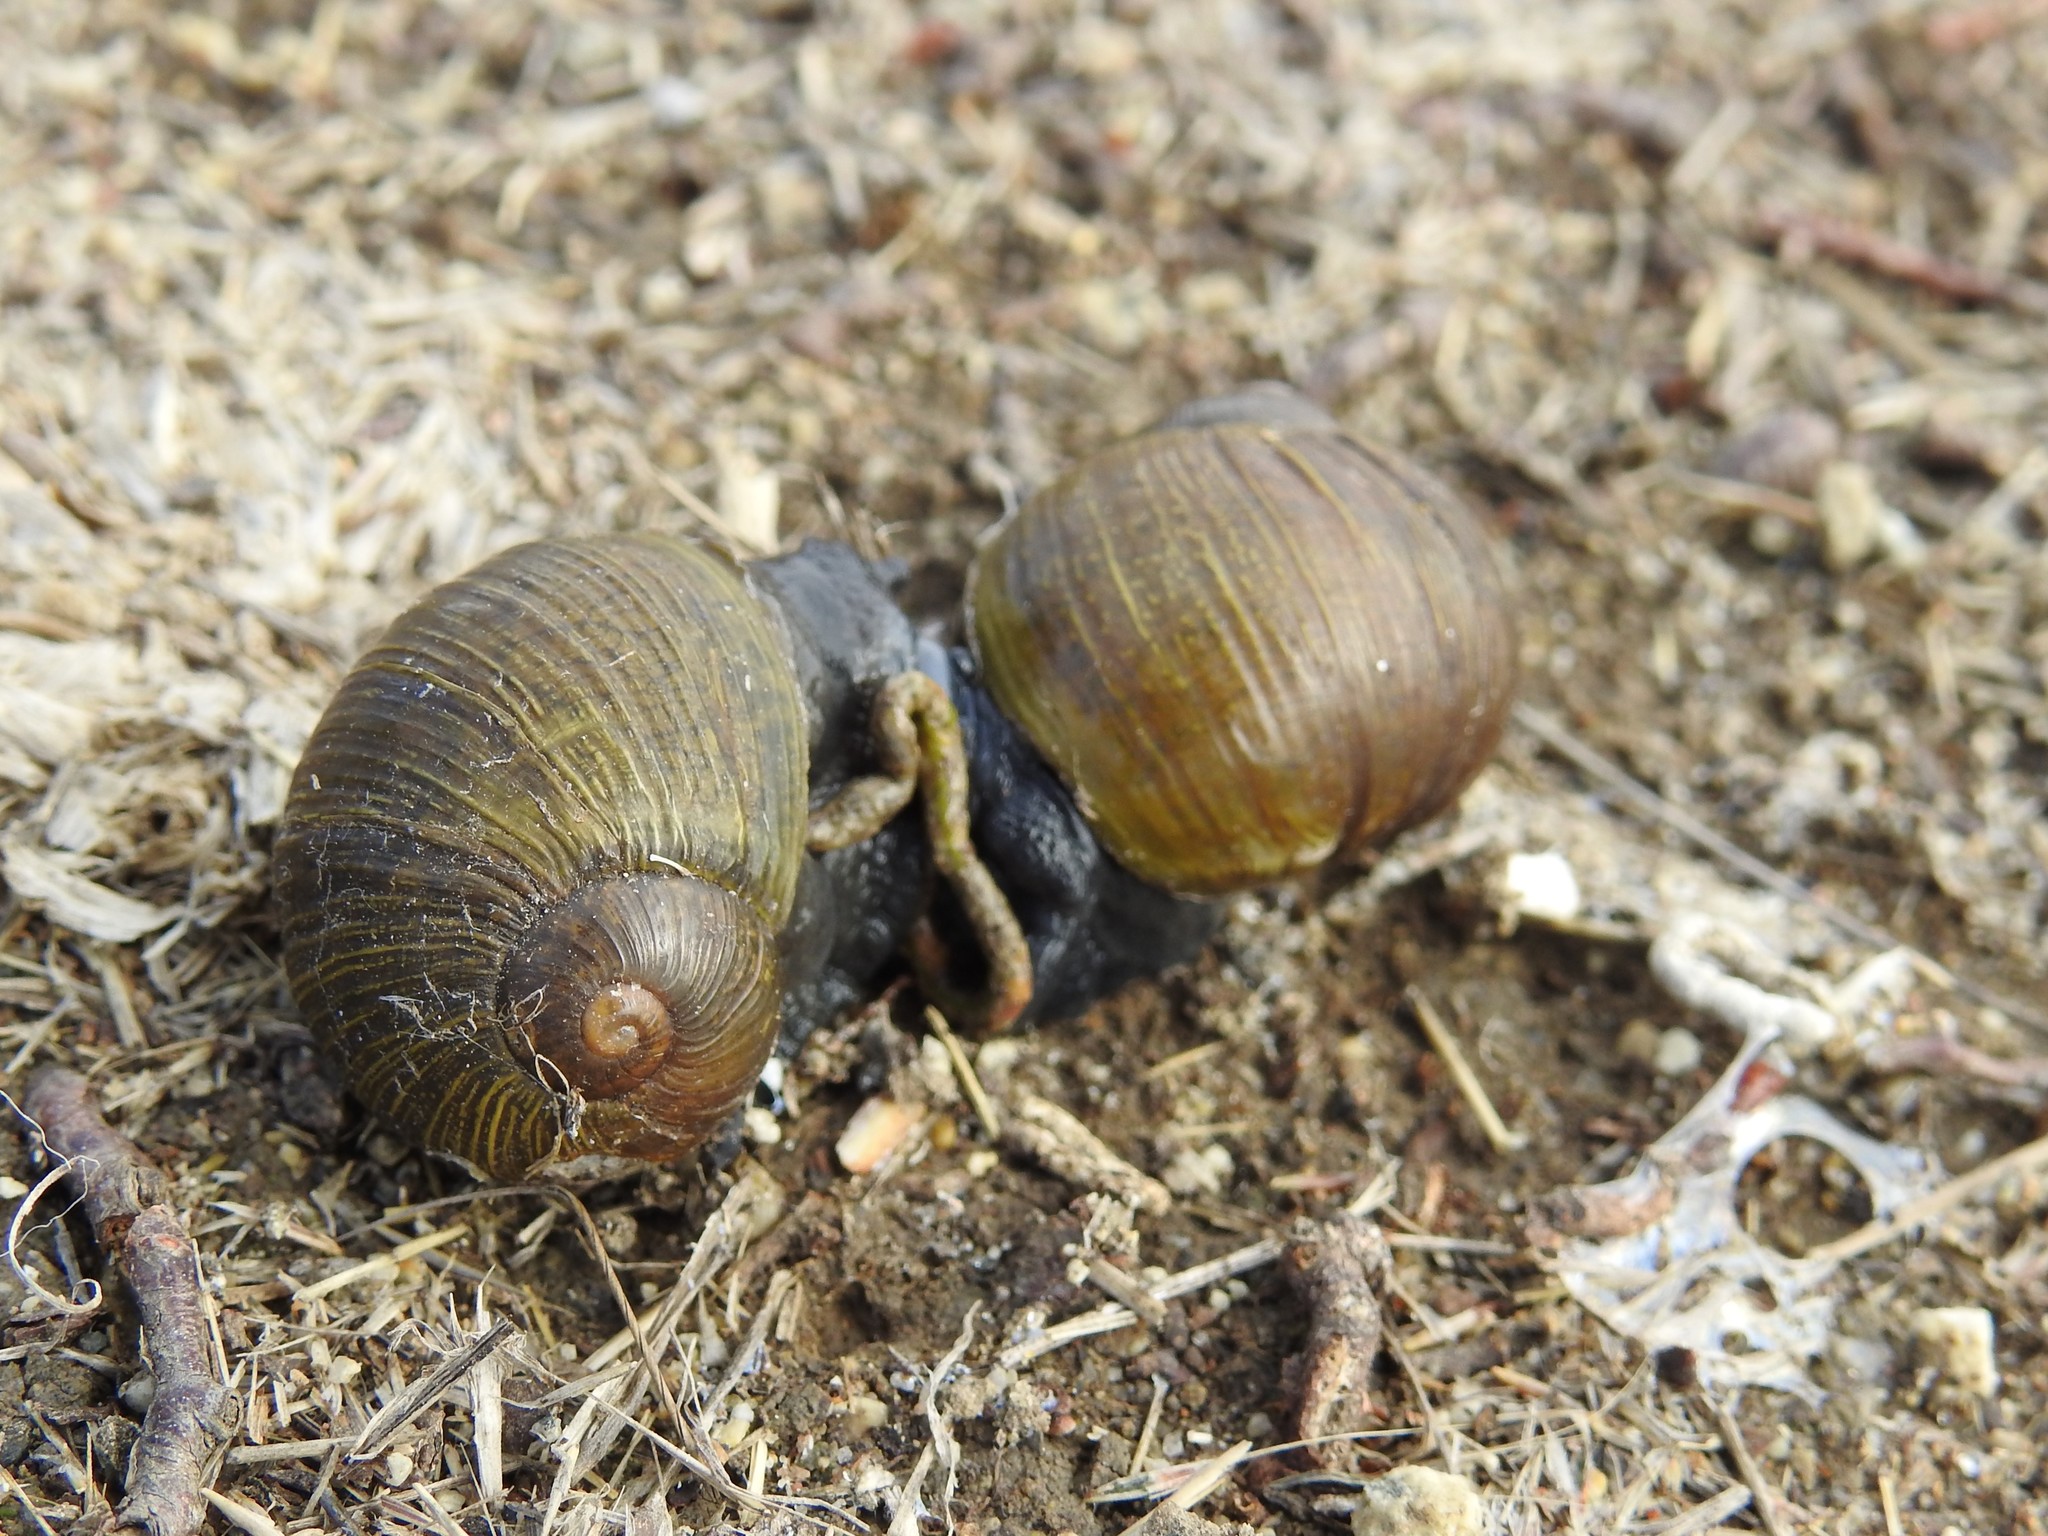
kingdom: Animalia
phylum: Mollusca
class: Gastropoda
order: Stylommatophora
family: Helicidae
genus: Cantareus
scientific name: Cantareus apertus
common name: Green gardensnail
